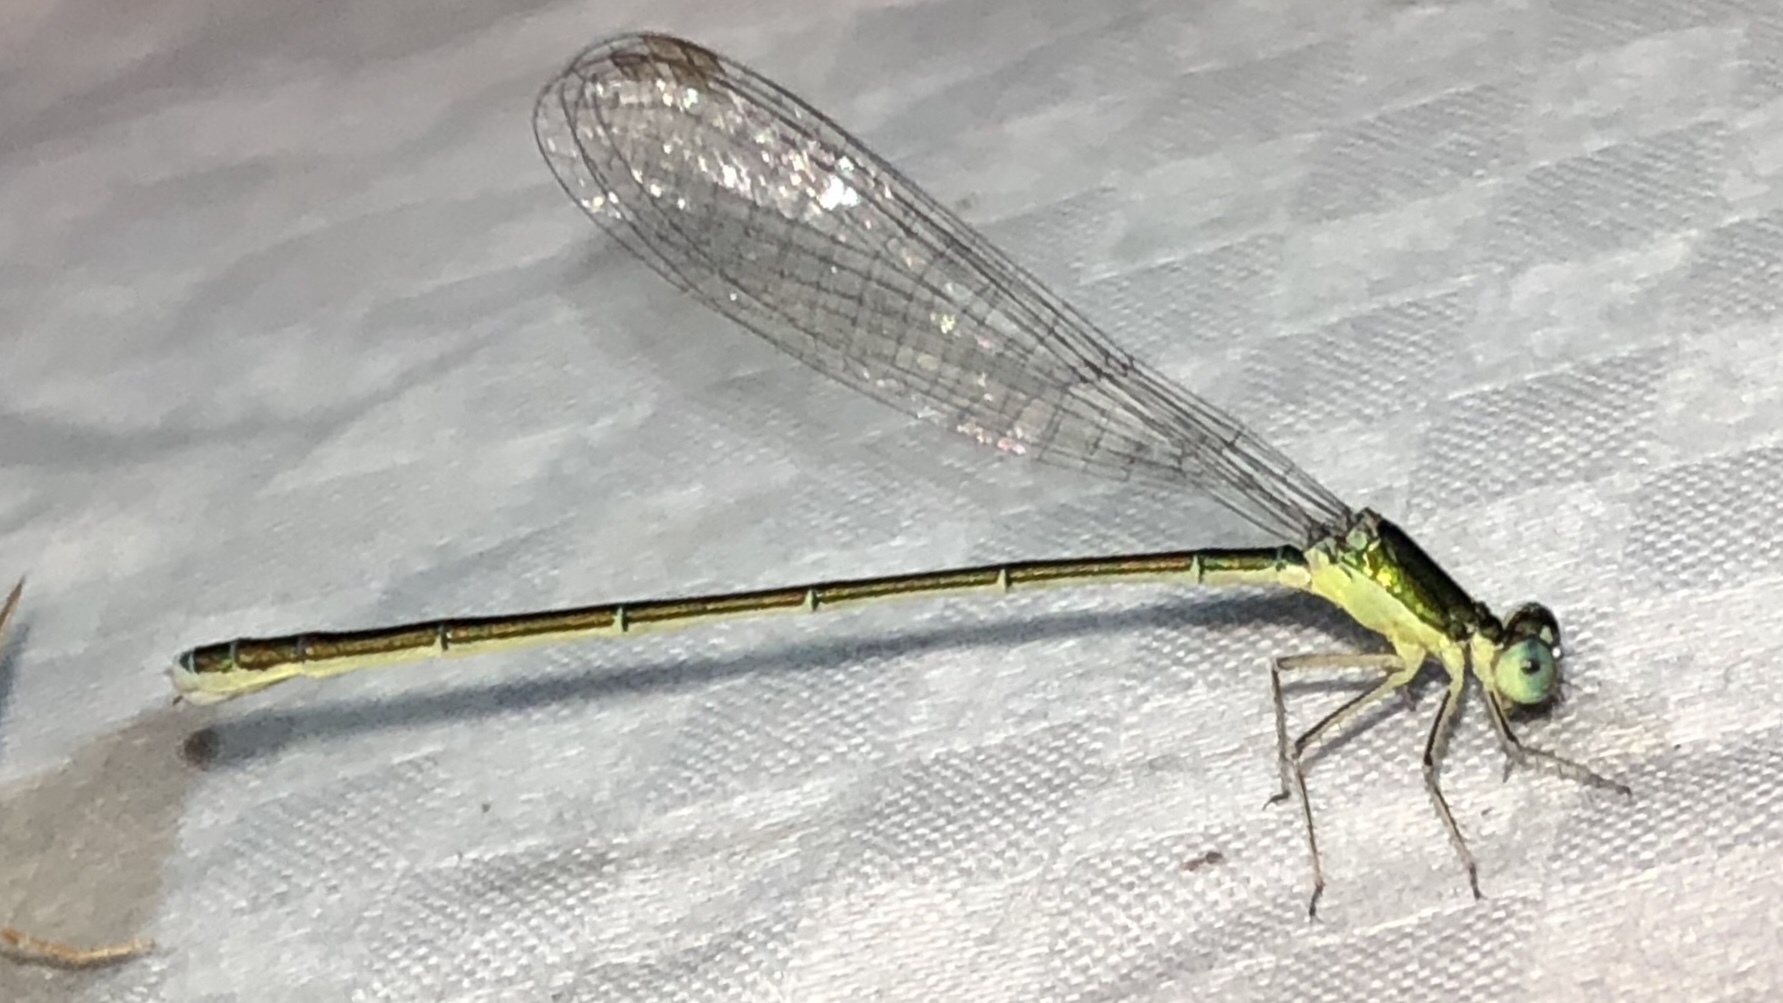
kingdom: Animalia
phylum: Arthropoda
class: Insecta
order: Odonata
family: Coenagrionidae
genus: Nehalennia
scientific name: Nehalennia irene
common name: Sedge sprite
